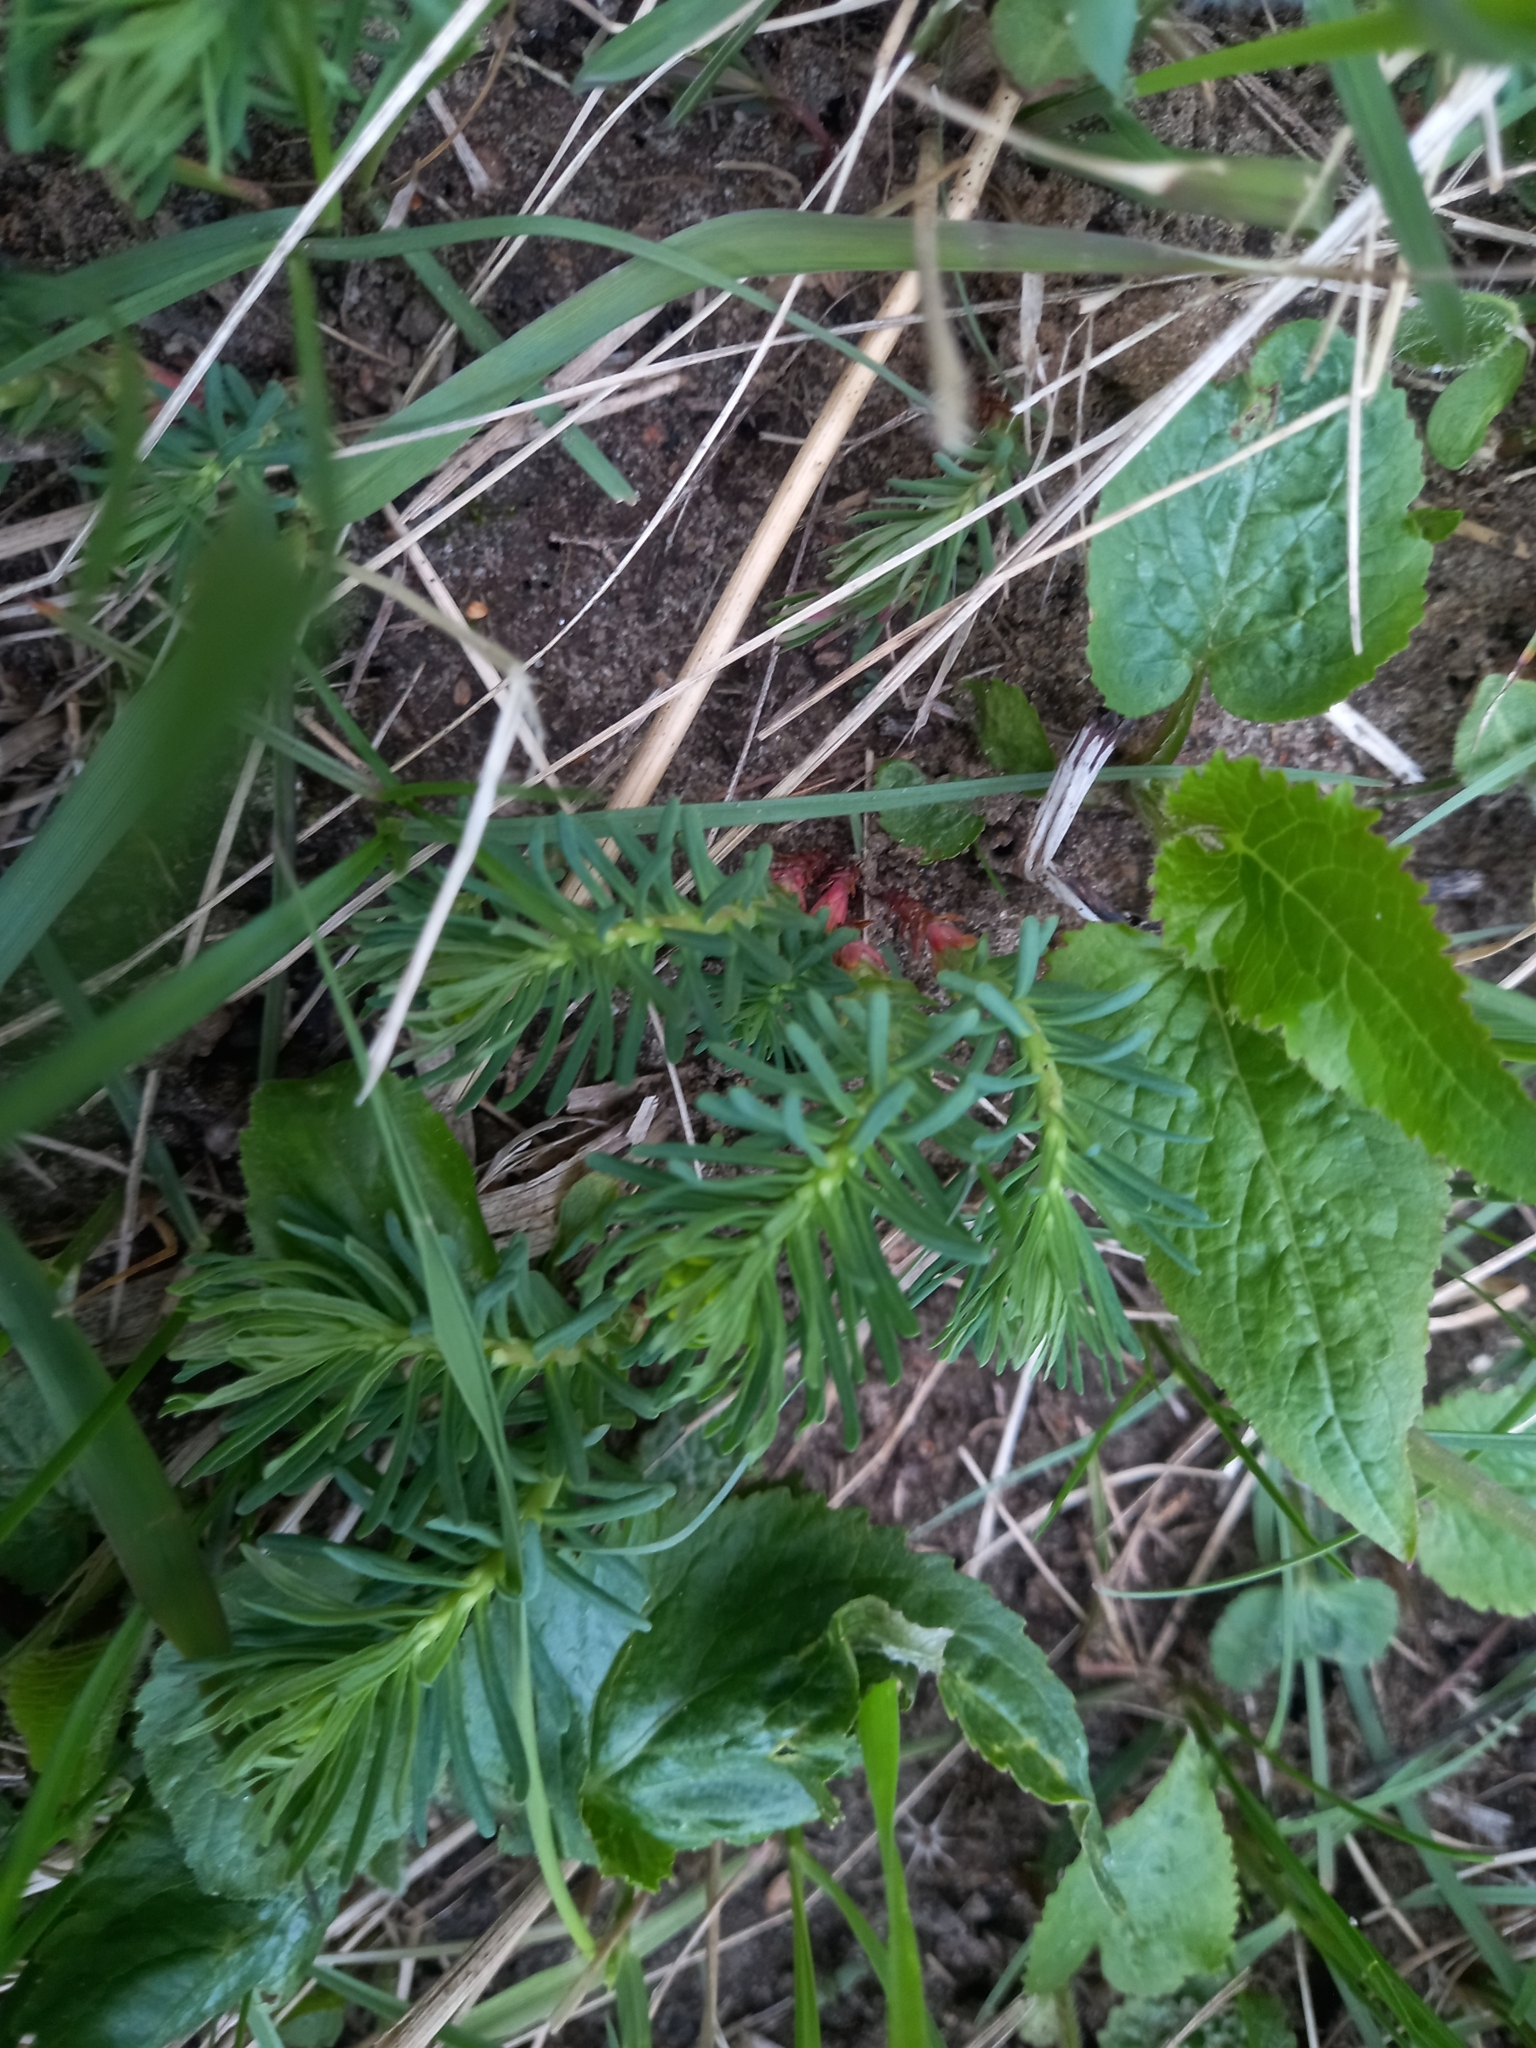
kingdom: Plantae
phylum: Tracheophyta
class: Magnoliopsida
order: Malpighiales
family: Euphorbiaceae
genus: Euphorbia
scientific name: Euphorbia cyparissias
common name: Cypress spurge
